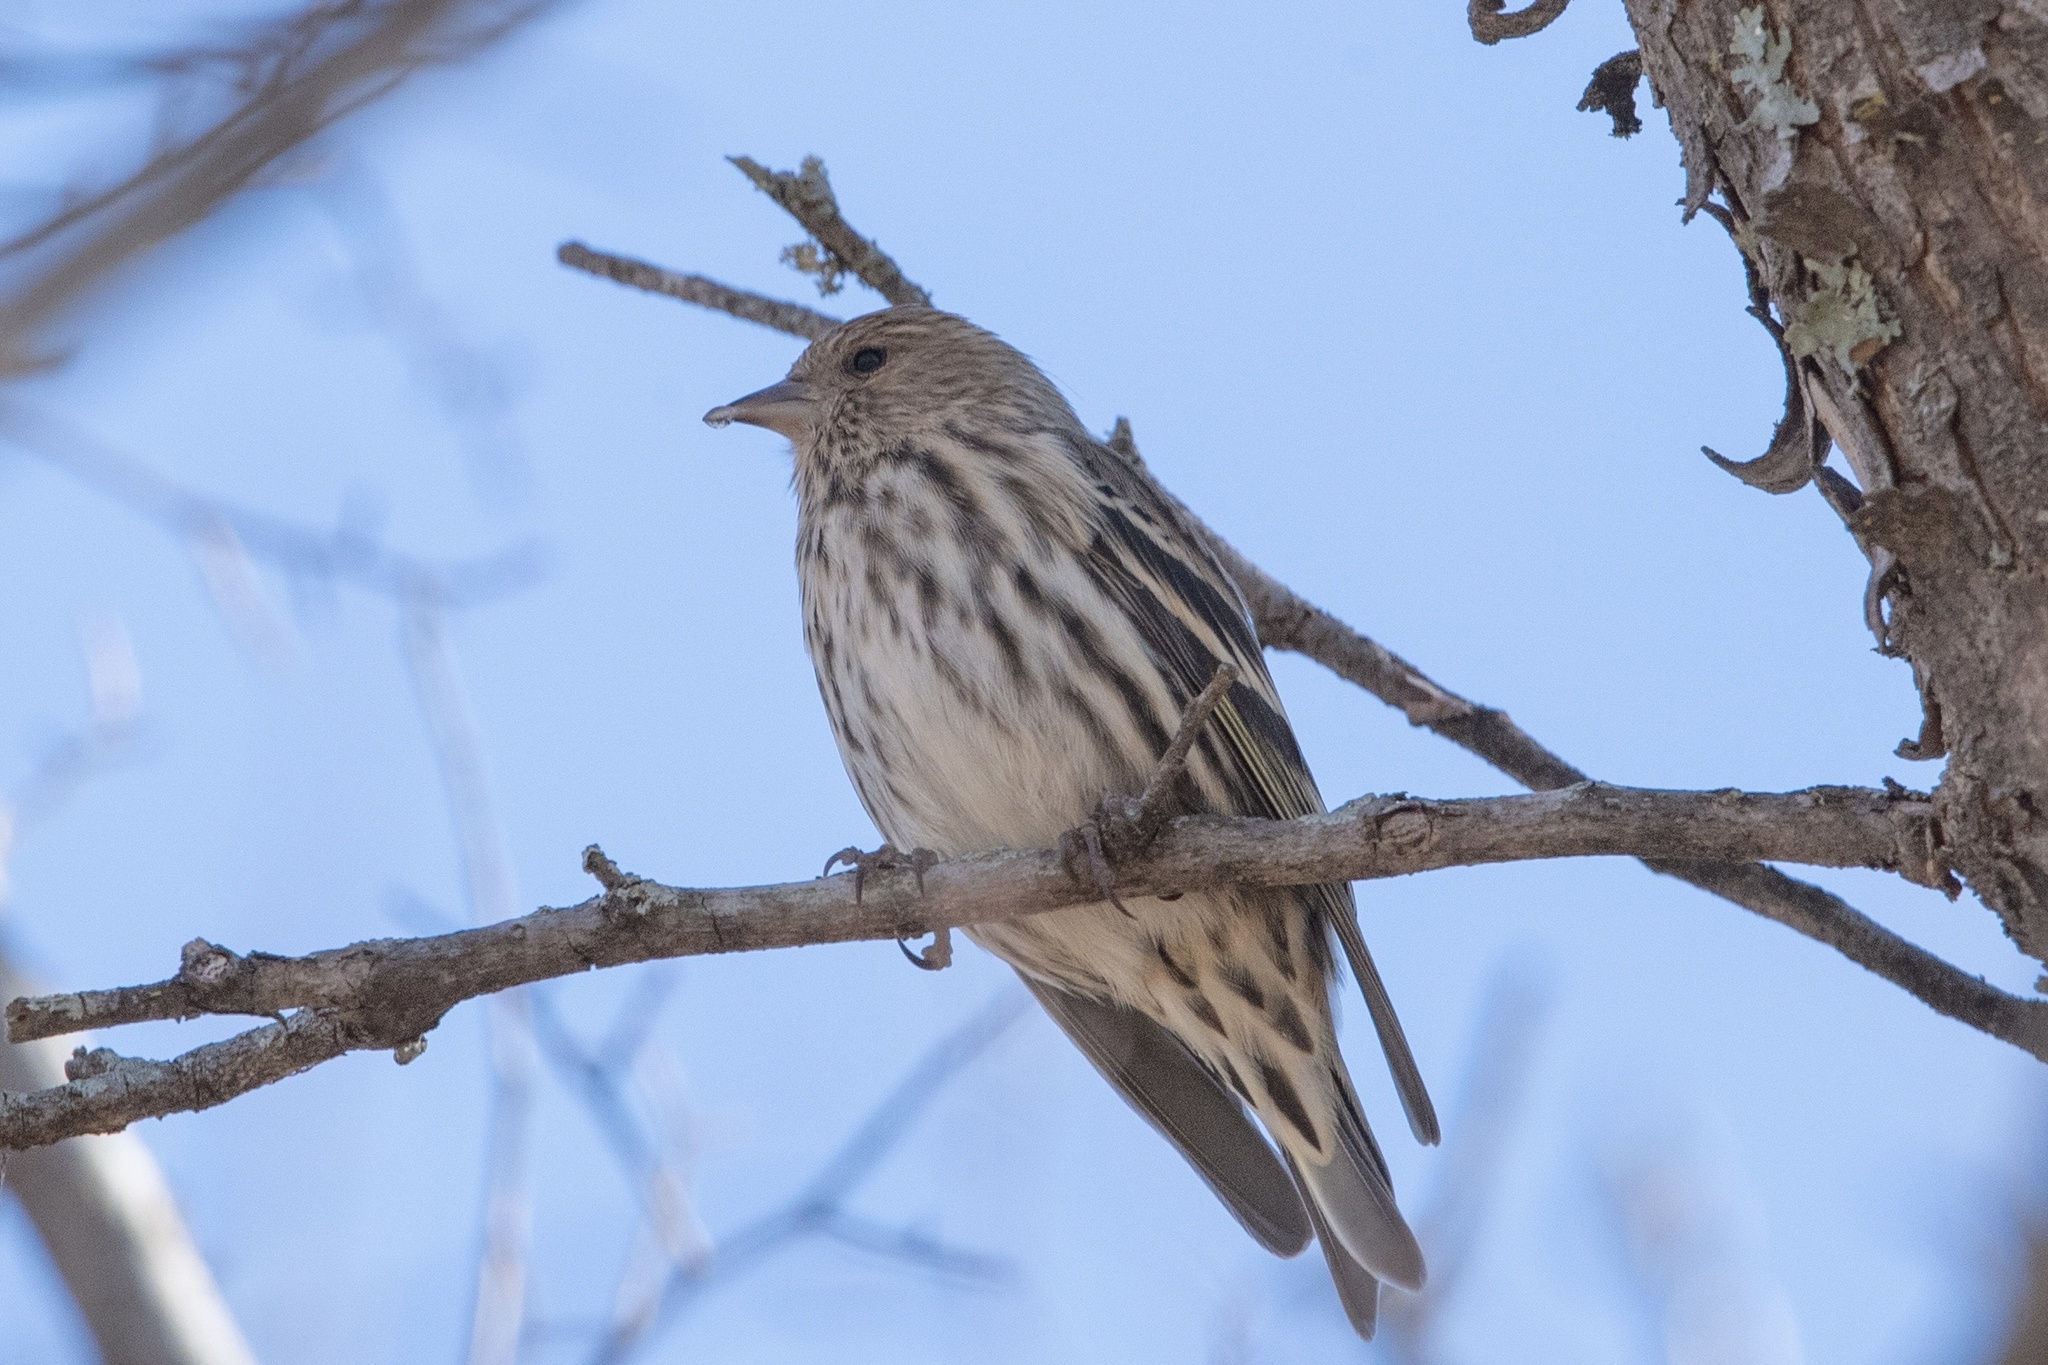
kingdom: Animalia
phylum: Chordata
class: Aves
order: Passeriformes
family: Fringillidae
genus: Spinus
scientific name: Spinus pinus
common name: Pine siskin
